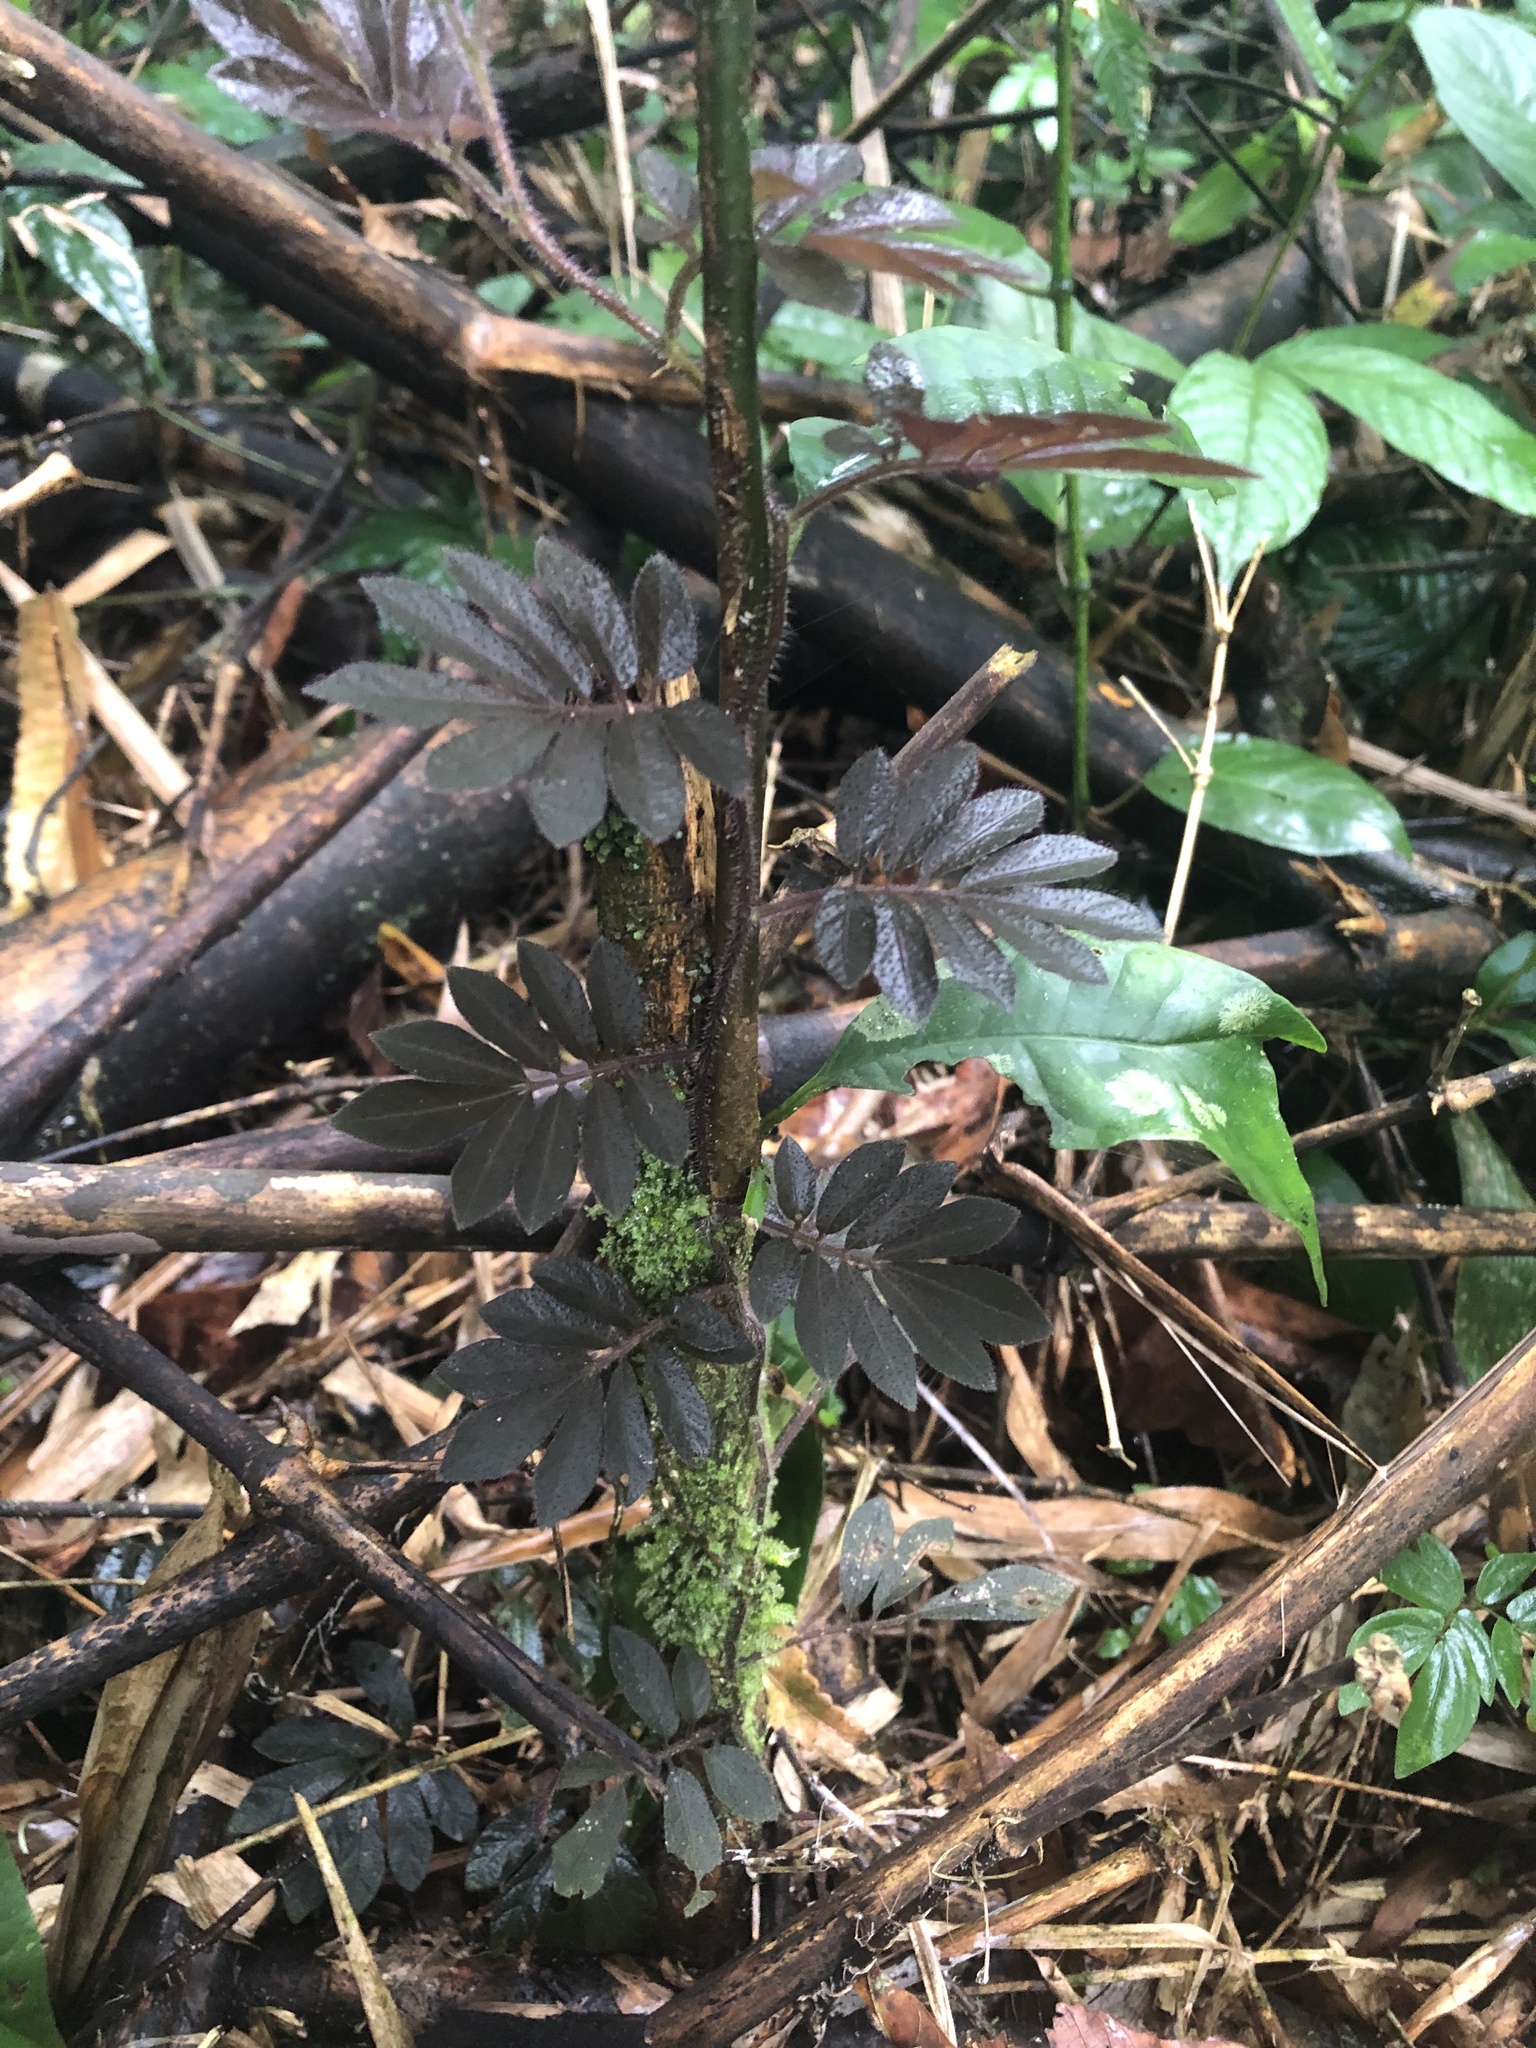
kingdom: Plantae
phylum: Tracheophyta
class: Magnoliopsida
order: Solanales
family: Solanaceae
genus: Solanum
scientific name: Solanum uleanum
